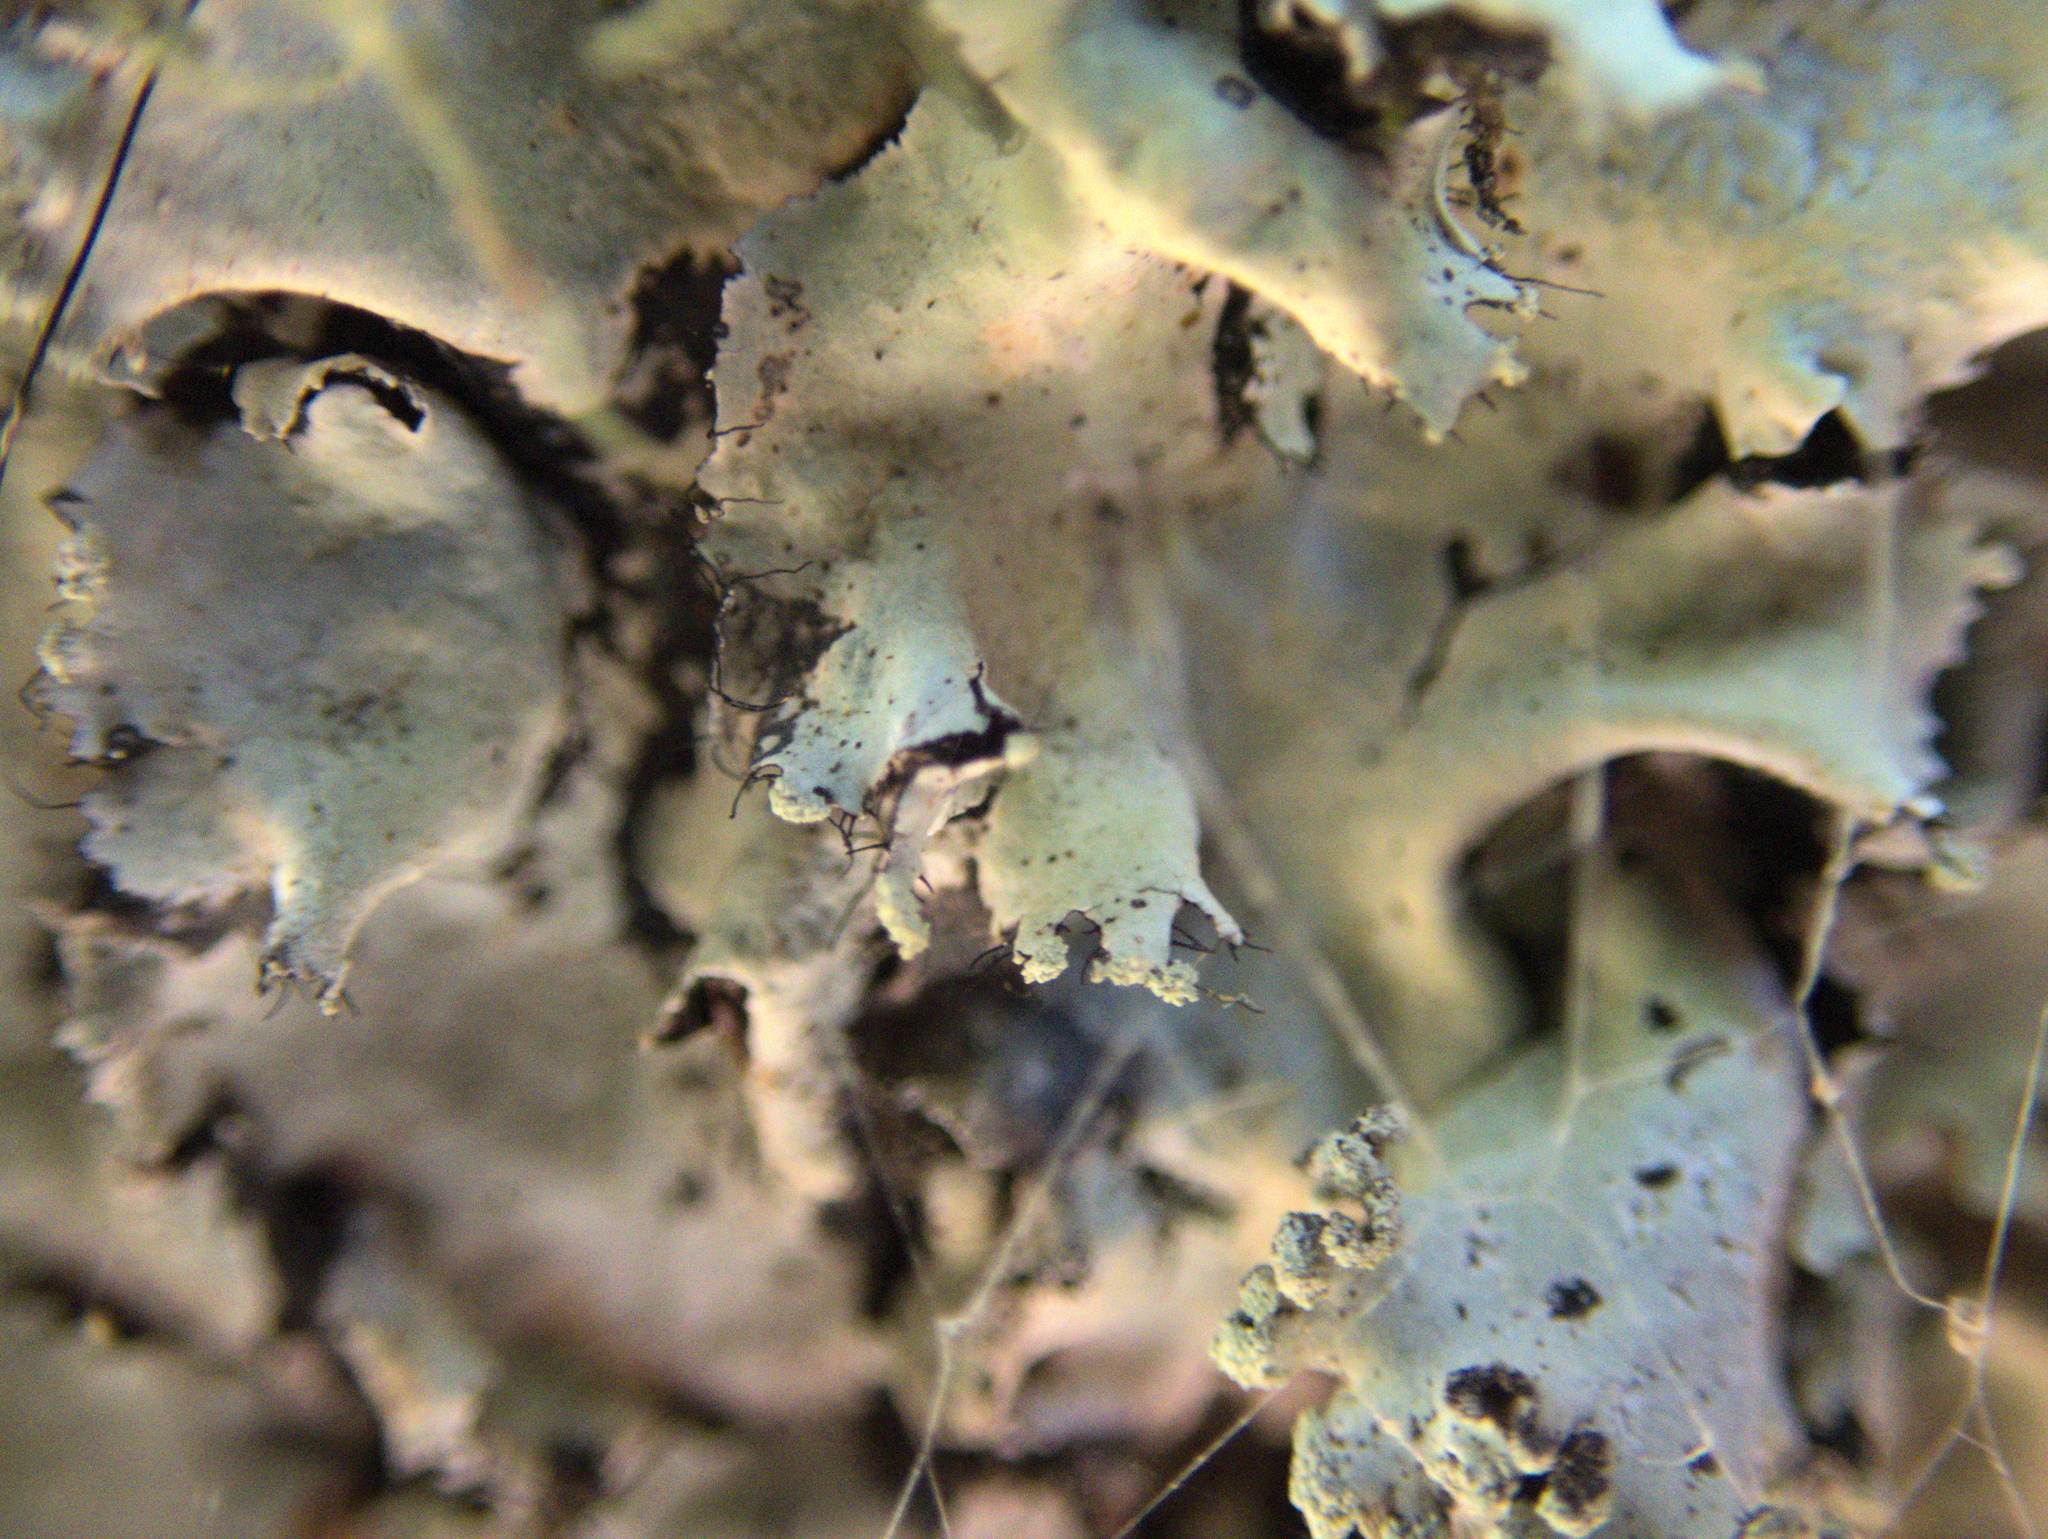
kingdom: Fungi
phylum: Ascomycota
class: Lecanoromycetes
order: Lecanorales
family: Parmeliaceae
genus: Parmotrema
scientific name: Parmotrema robustum
